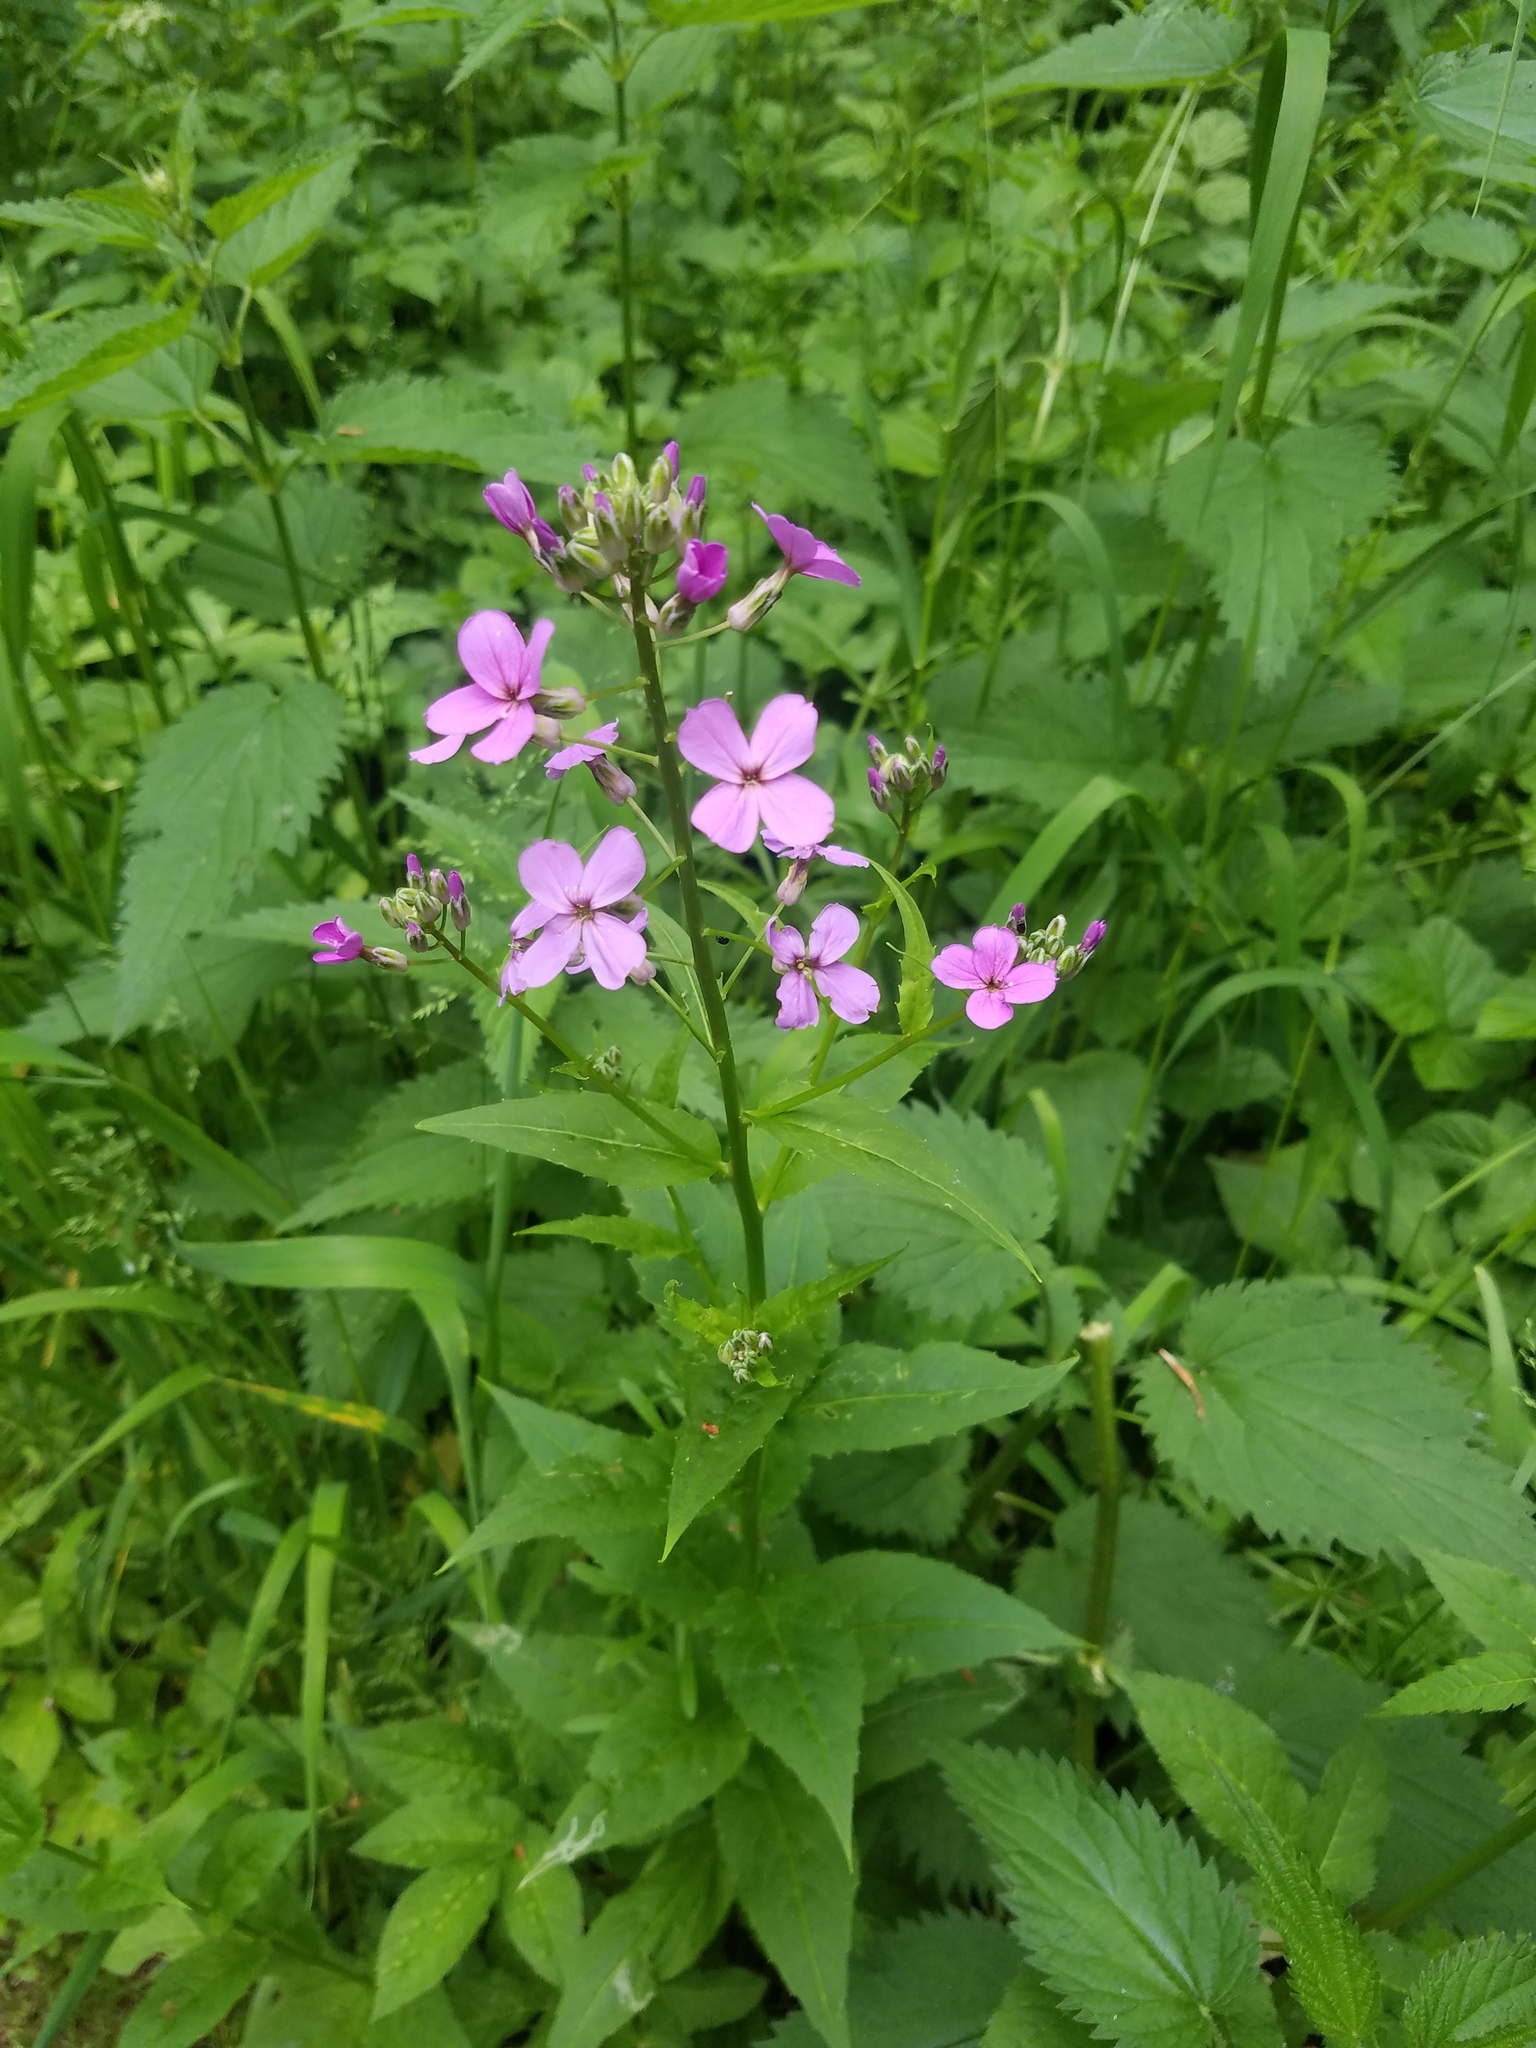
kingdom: Plantae
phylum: Tracheophyta
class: Magnoliopsida
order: Brassicales
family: Brassicaceae
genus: Hesperis
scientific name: Hesperis matronalis
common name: Dame's-violet
